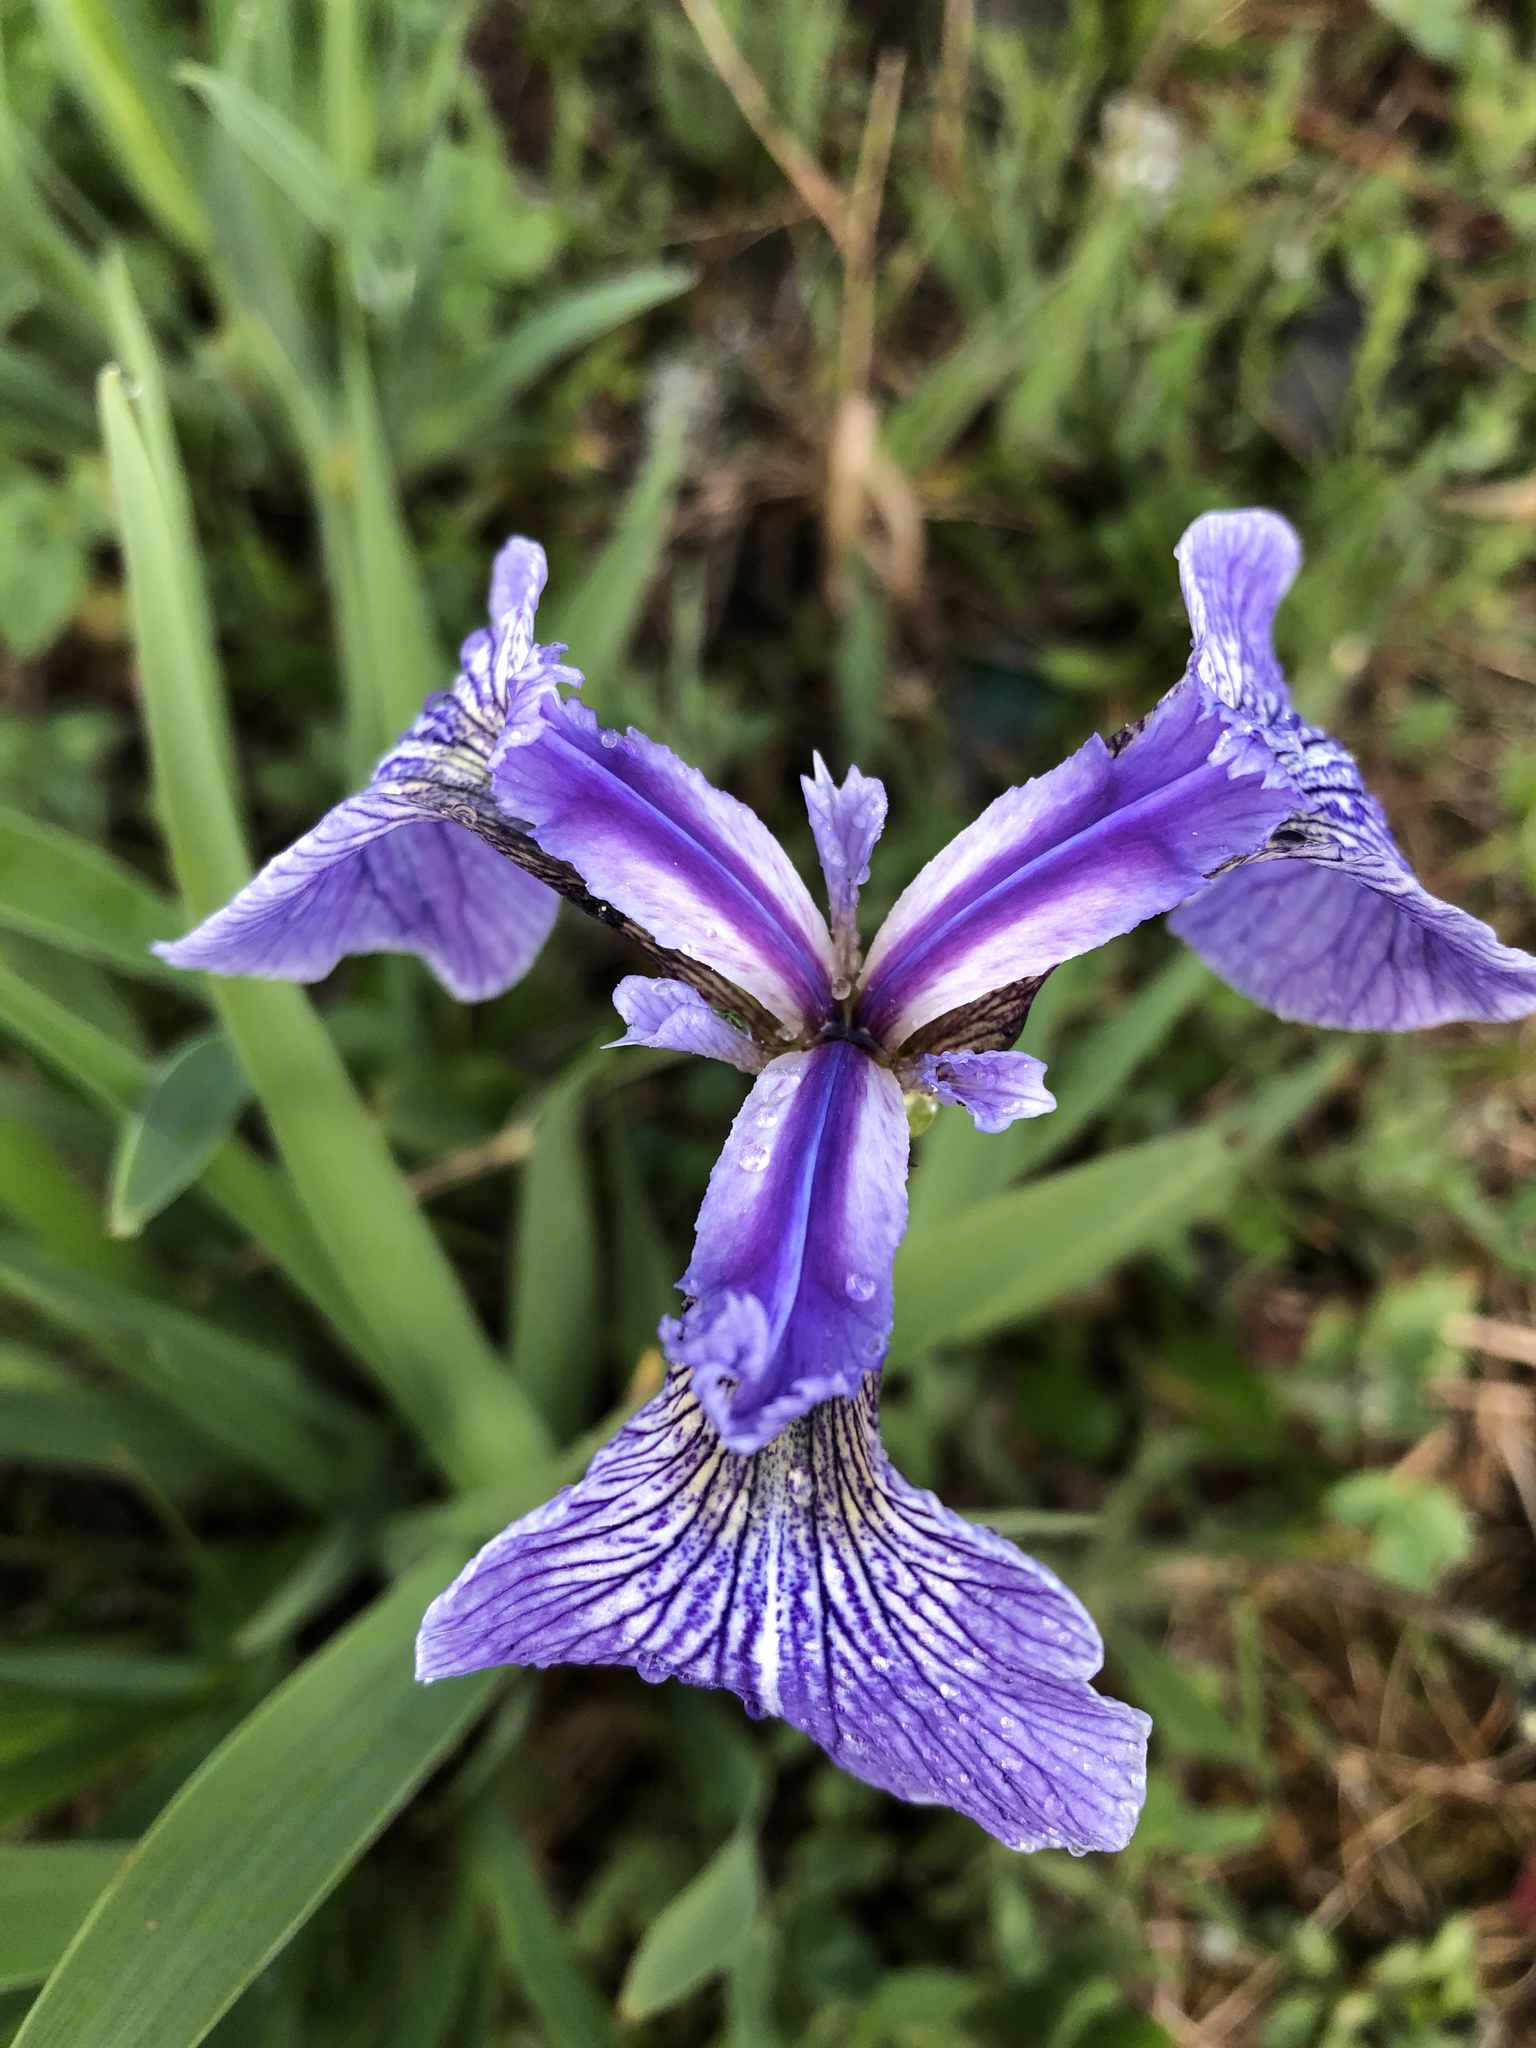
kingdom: Plantae
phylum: Tracheophyta
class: Liliopsida
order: Asparagales
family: Iridaceae
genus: Iris
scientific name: Iris hookeri
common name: Canada beach-head iris
